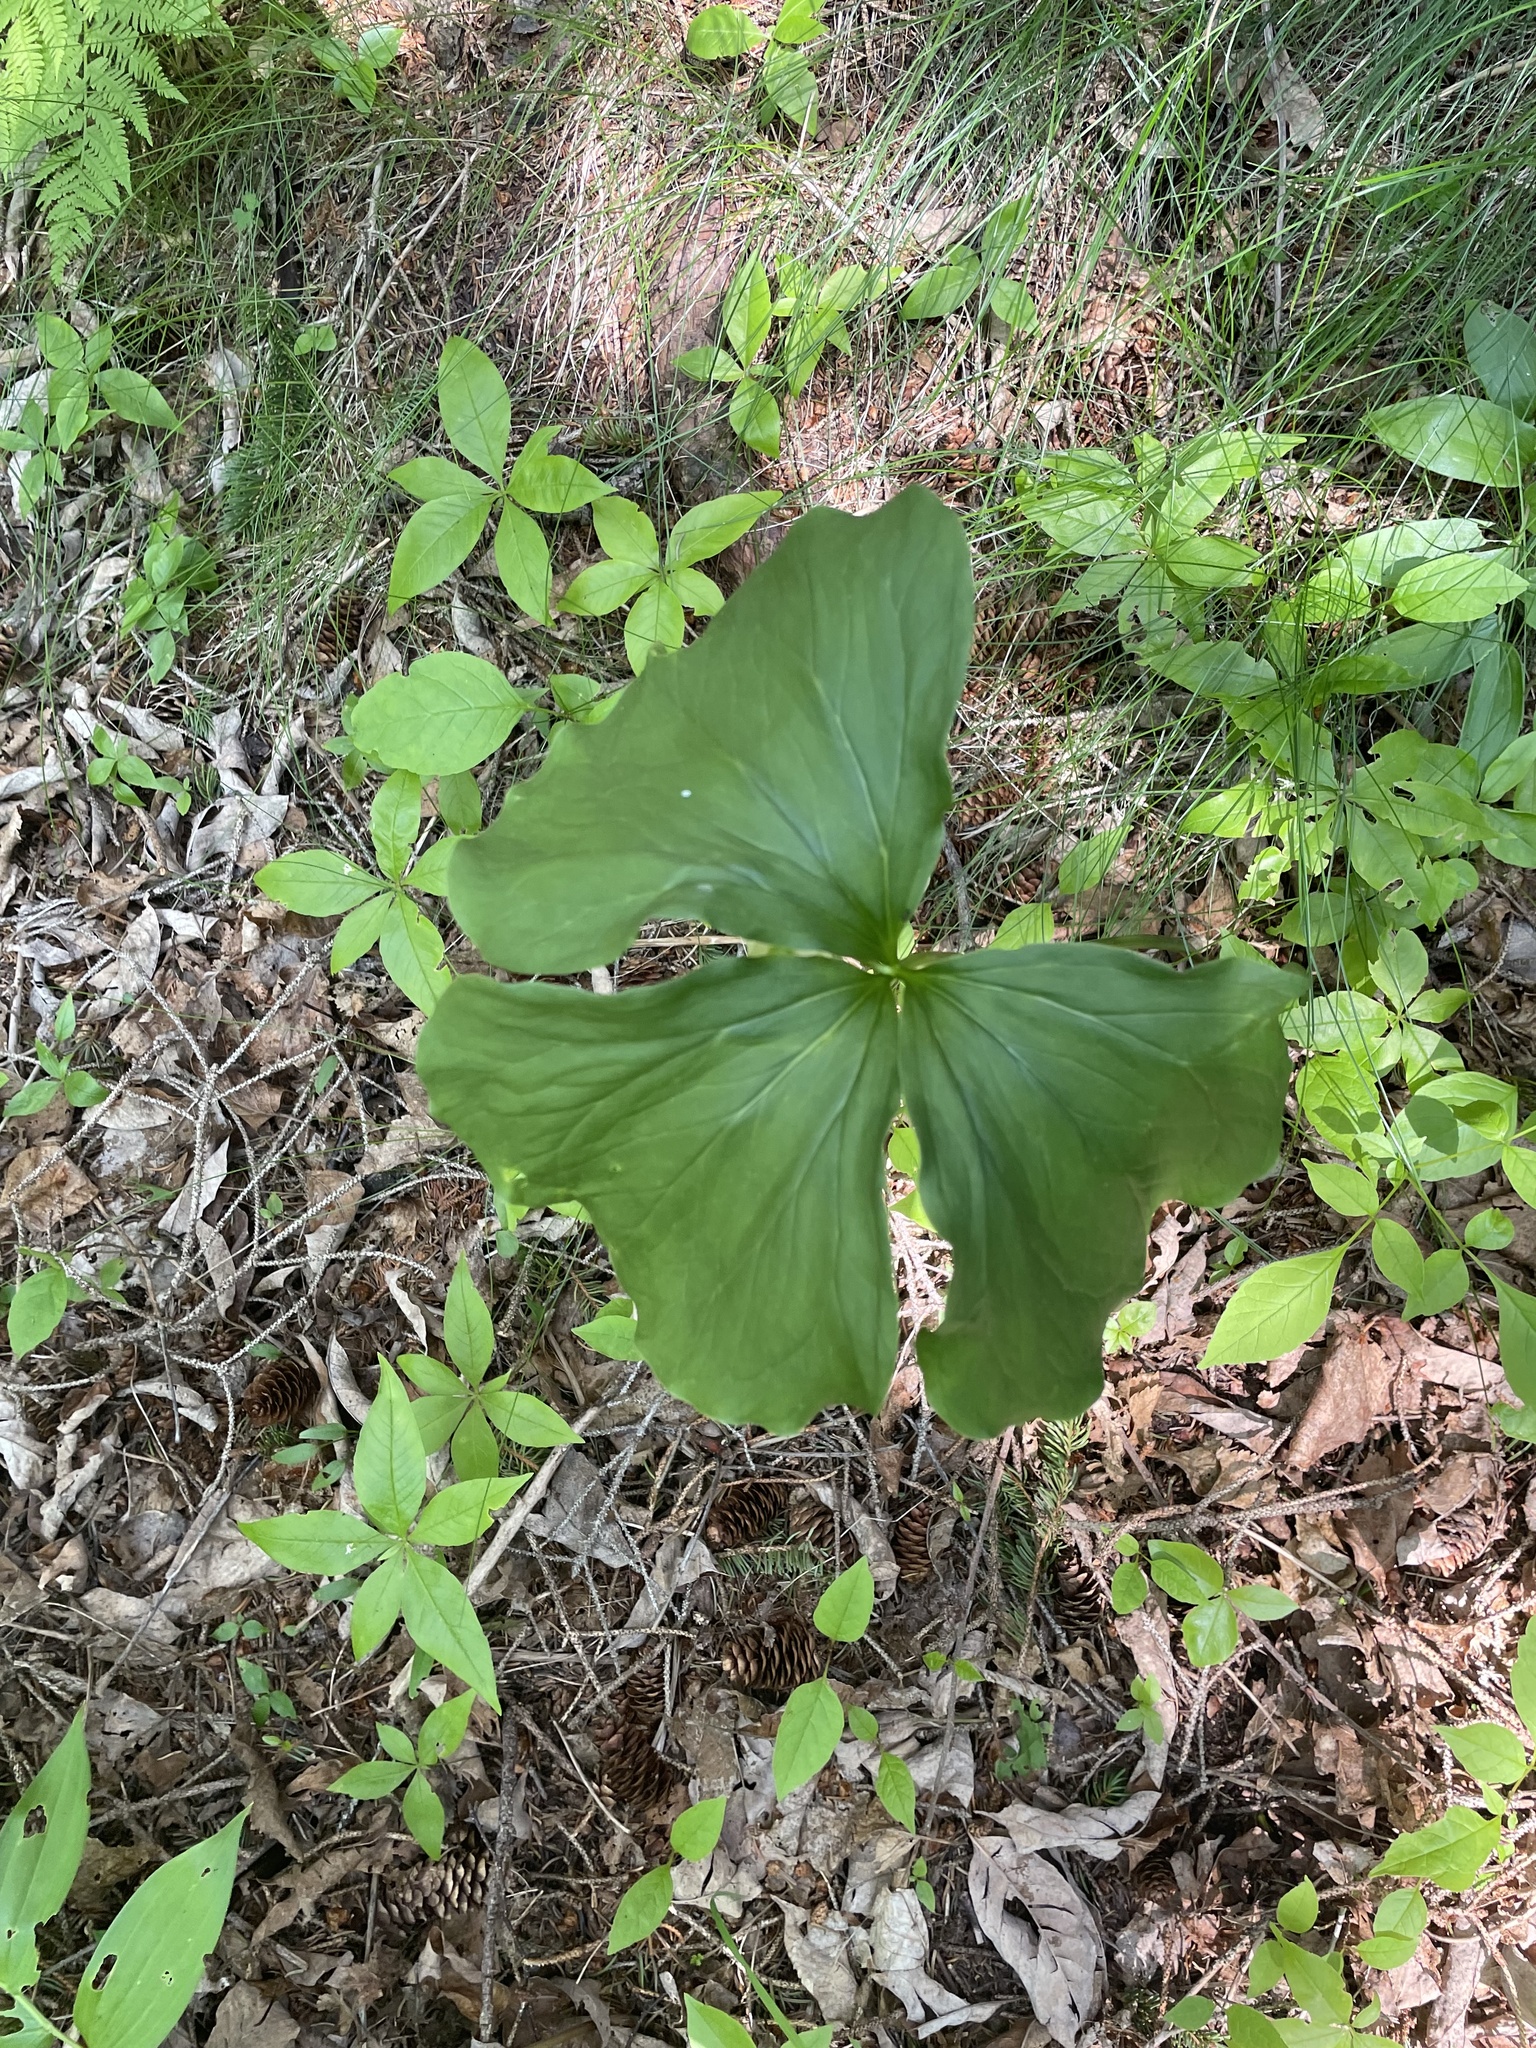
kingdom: Plantae
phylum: Tracheophyta
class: Liliopsida
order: Liliales
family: Melanthiaceae
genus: Trillium
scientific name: Trillium cernuum
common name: Nodding trillium
